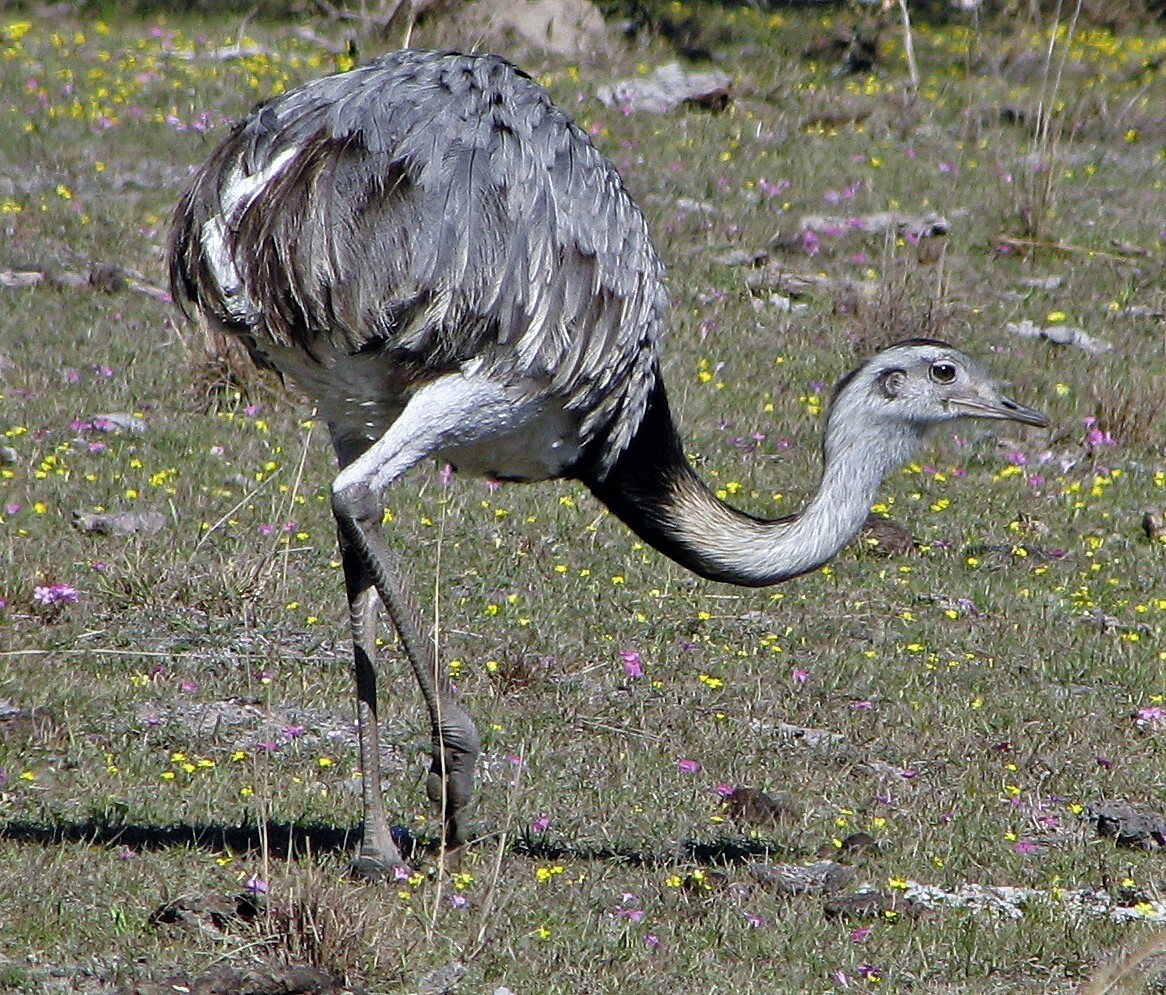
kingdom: Animalia
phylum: Chordata
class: Aves
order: Rheiformes
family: Rheidae
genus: Rhea
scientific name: Rhea americana
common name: Greater rhea
